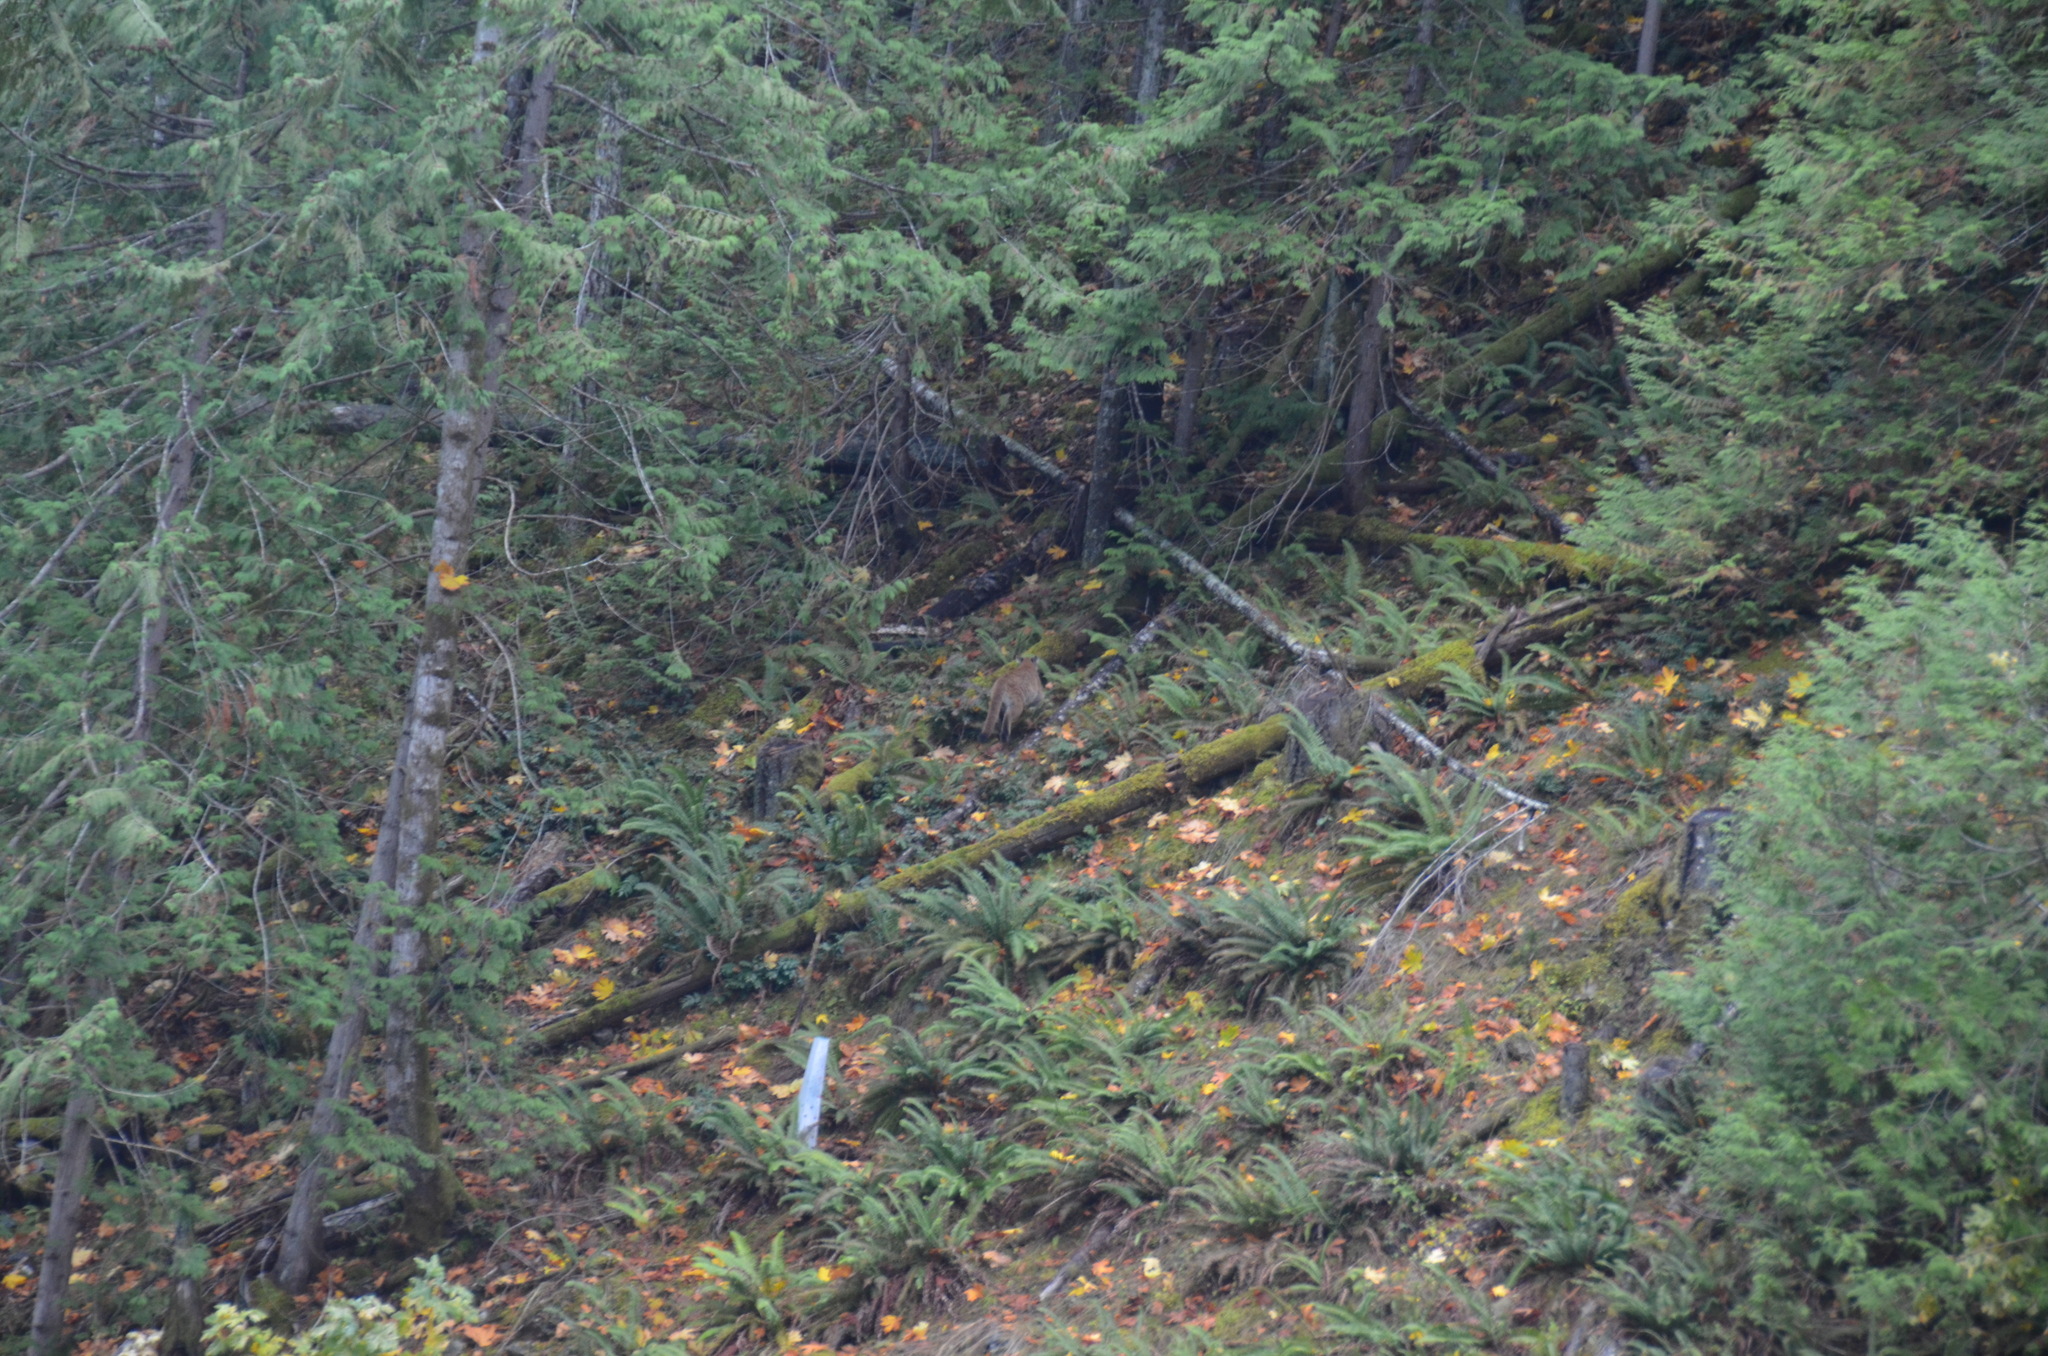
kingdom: Animalia
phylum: Chordata
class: Mammalia
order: Carnivora
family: Felidae
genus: Puma
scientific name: Puma concolor
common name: Puma
